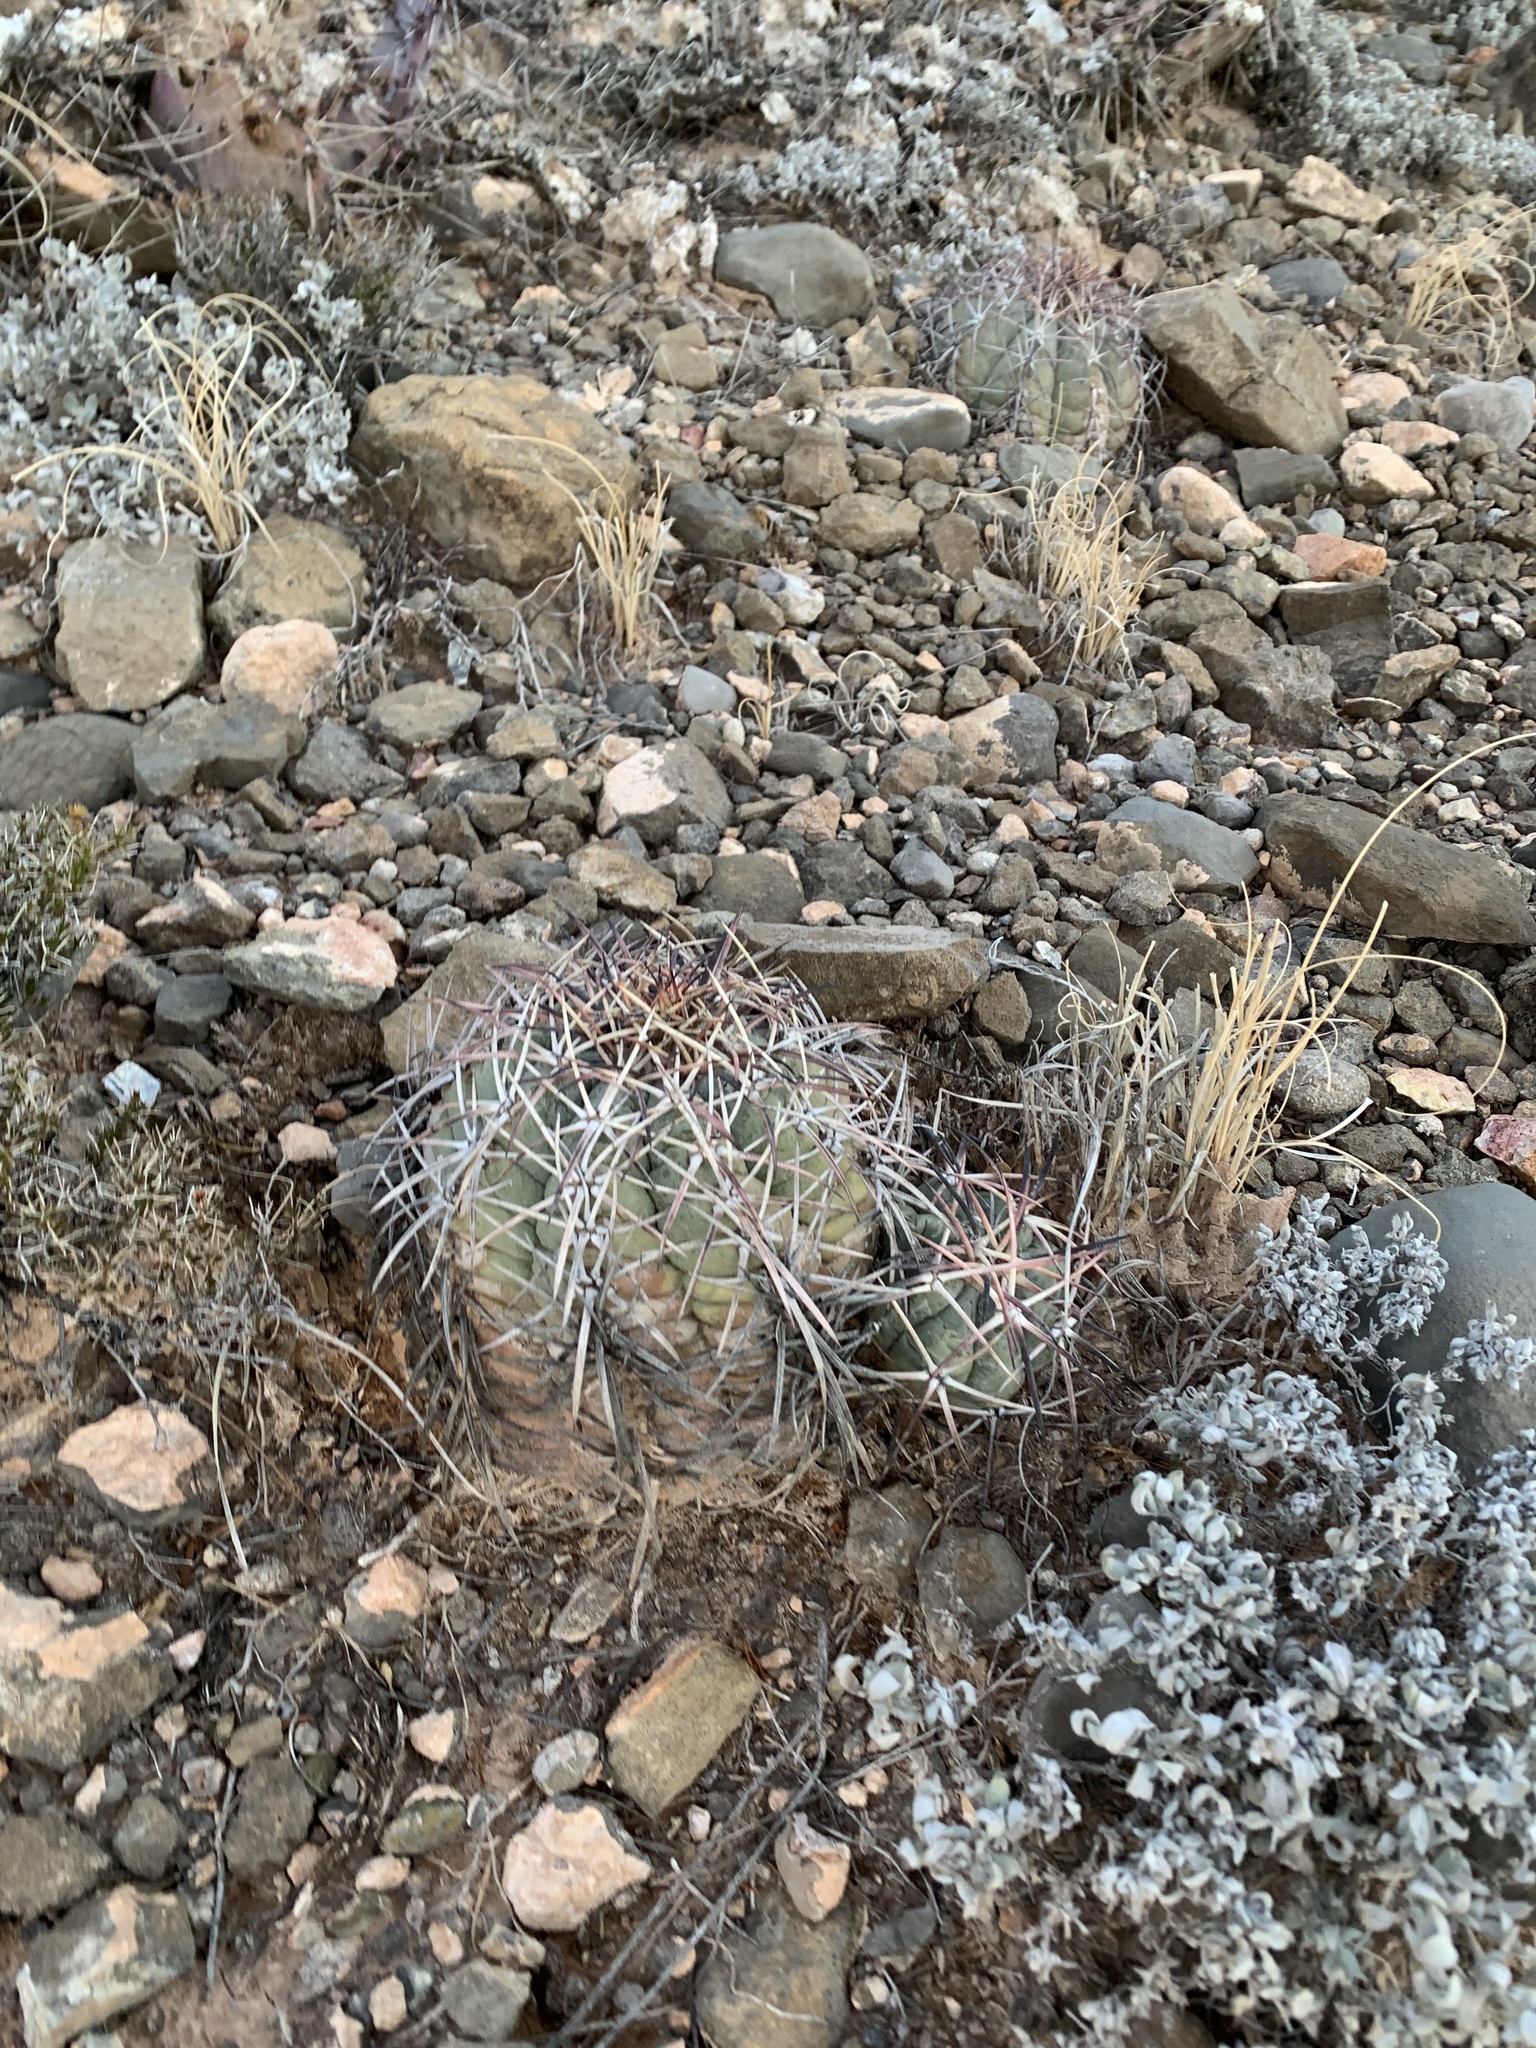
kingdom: Plantae
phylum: Tracheophyta
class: Magnoliopsida
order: Caryophyllales
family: Cactaceae
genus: Echinocactus
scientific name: Echinocactus horizonthalonius
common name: Devilshead
